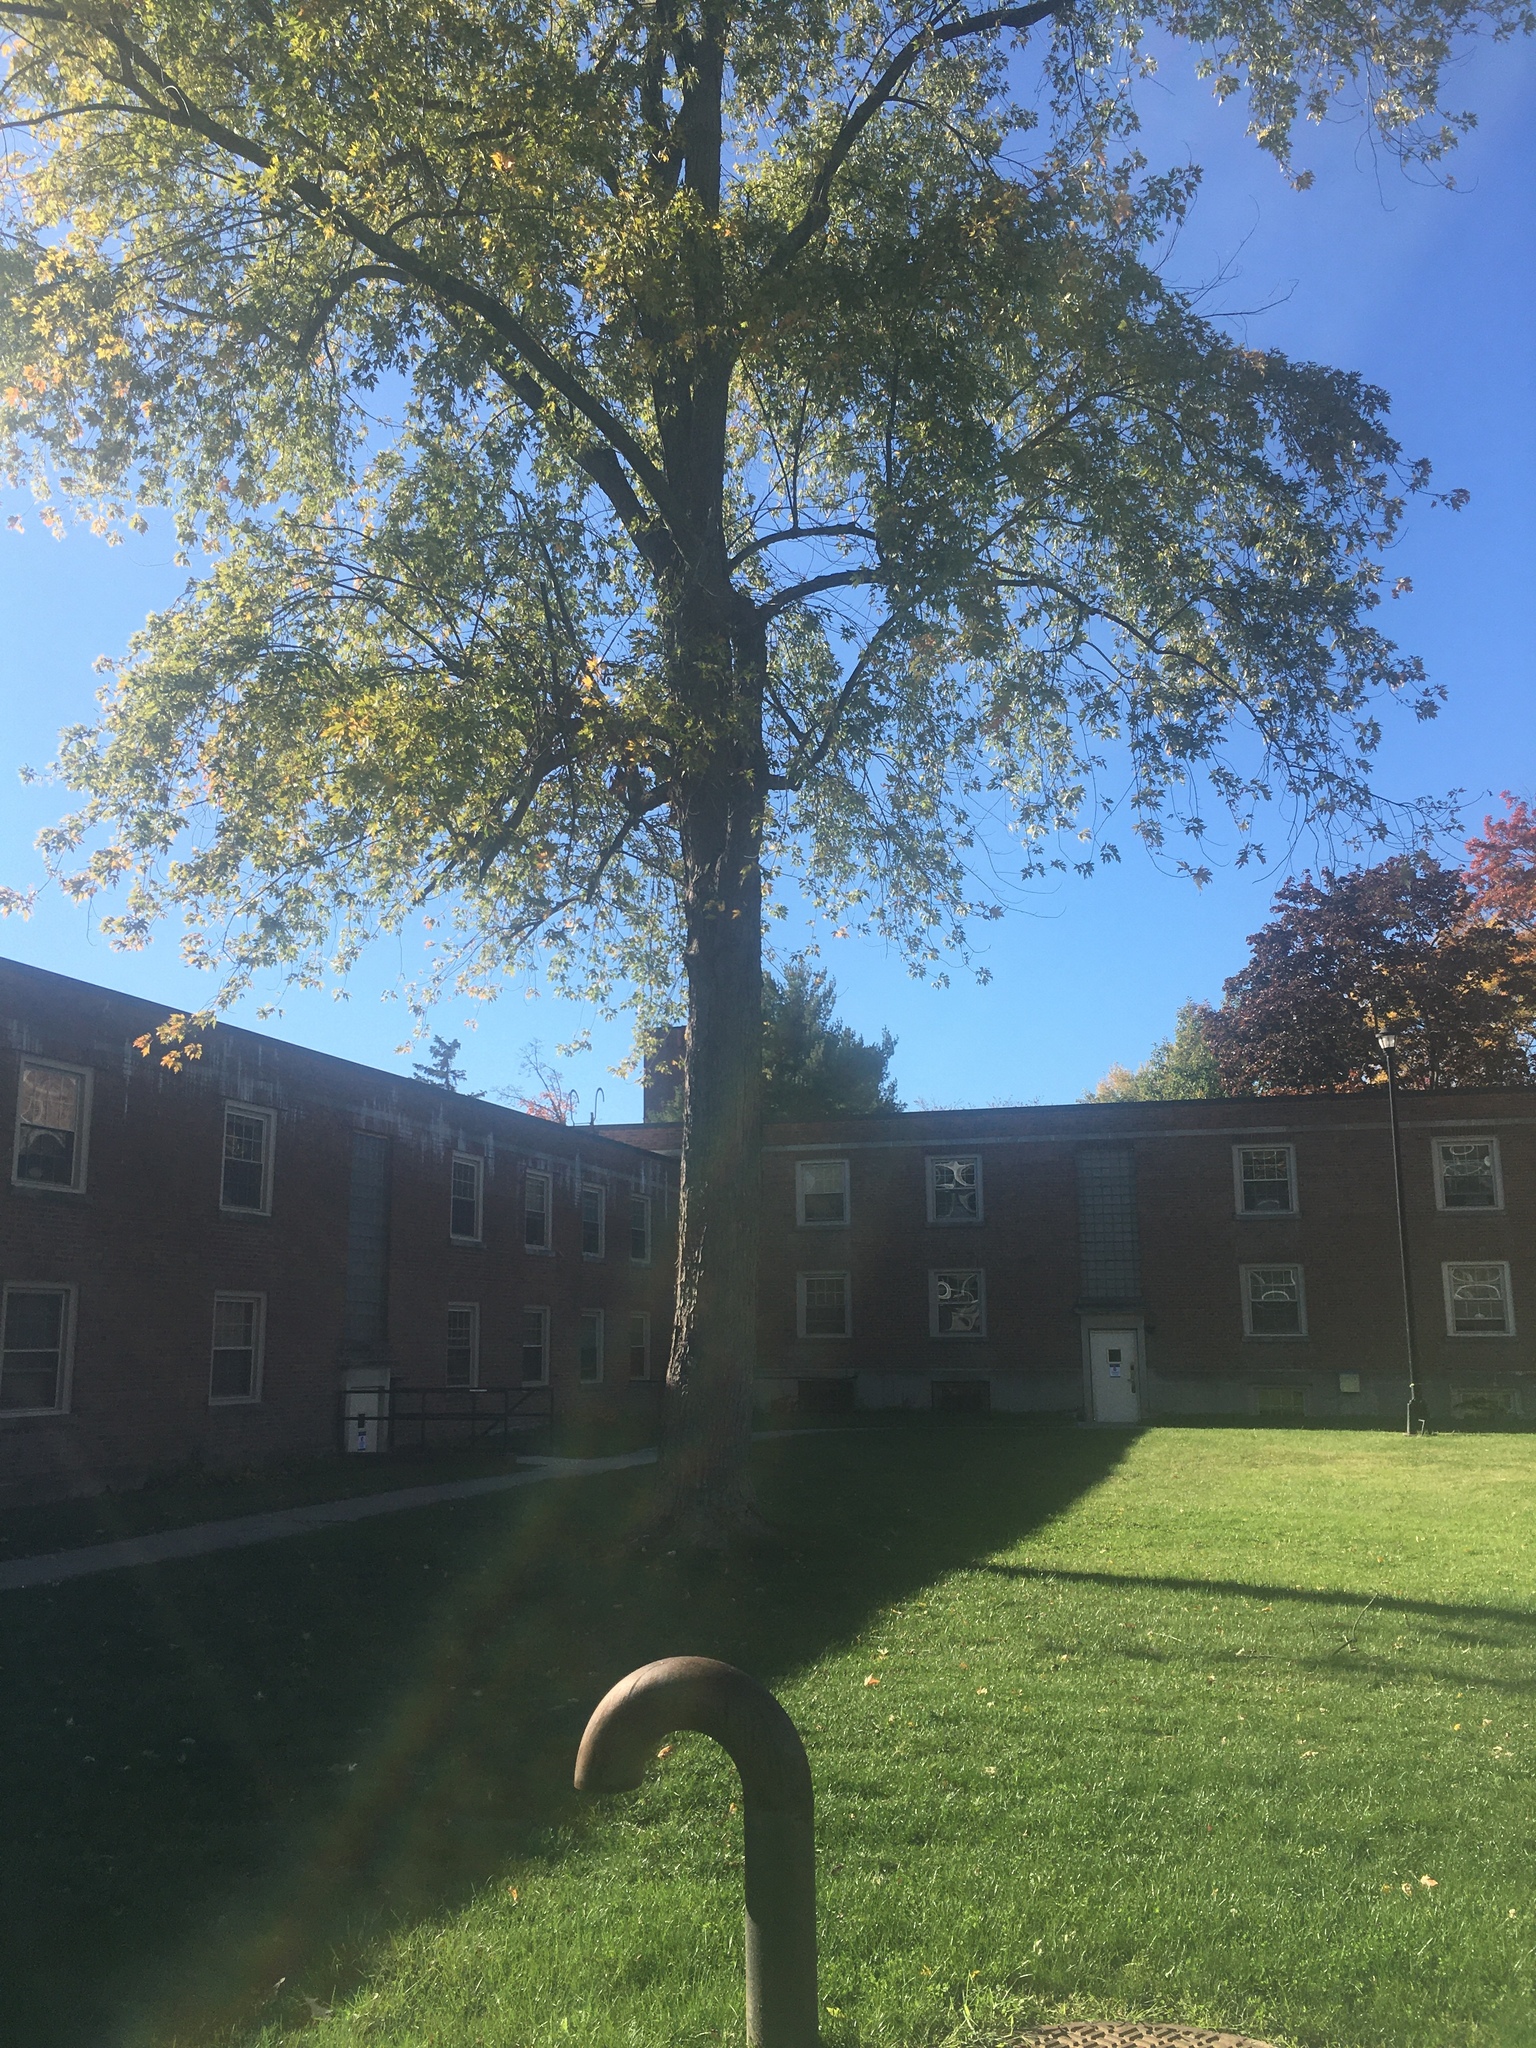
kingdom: Plantae
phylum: Tracheophyta
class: Magnoliopsida
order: Sapindales
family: Sapindaceae
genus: Acer
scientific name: Acer saccharinum
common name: Silver maple
